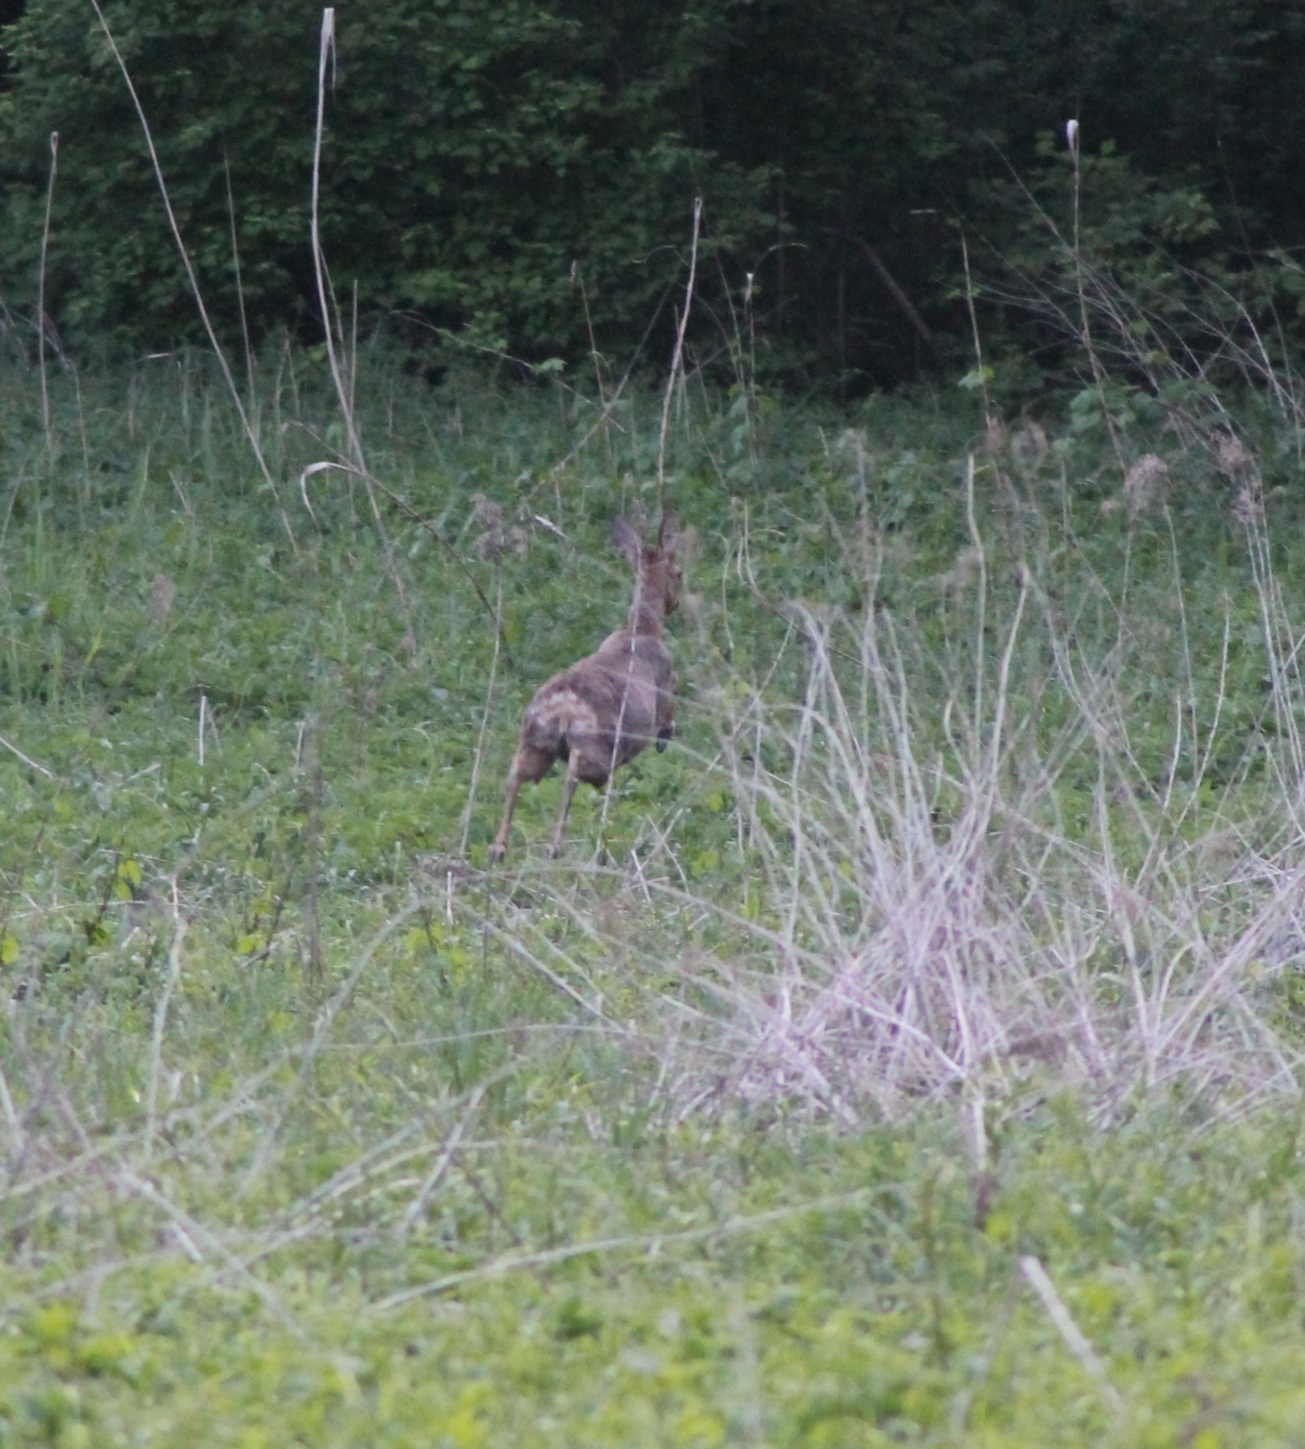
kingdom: Animalia
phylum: Chordata
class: Mammalia
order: Artiodactyla
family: Cervidae
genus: Capreolus
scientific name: Capreolus capreolus
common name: Western roe deer
